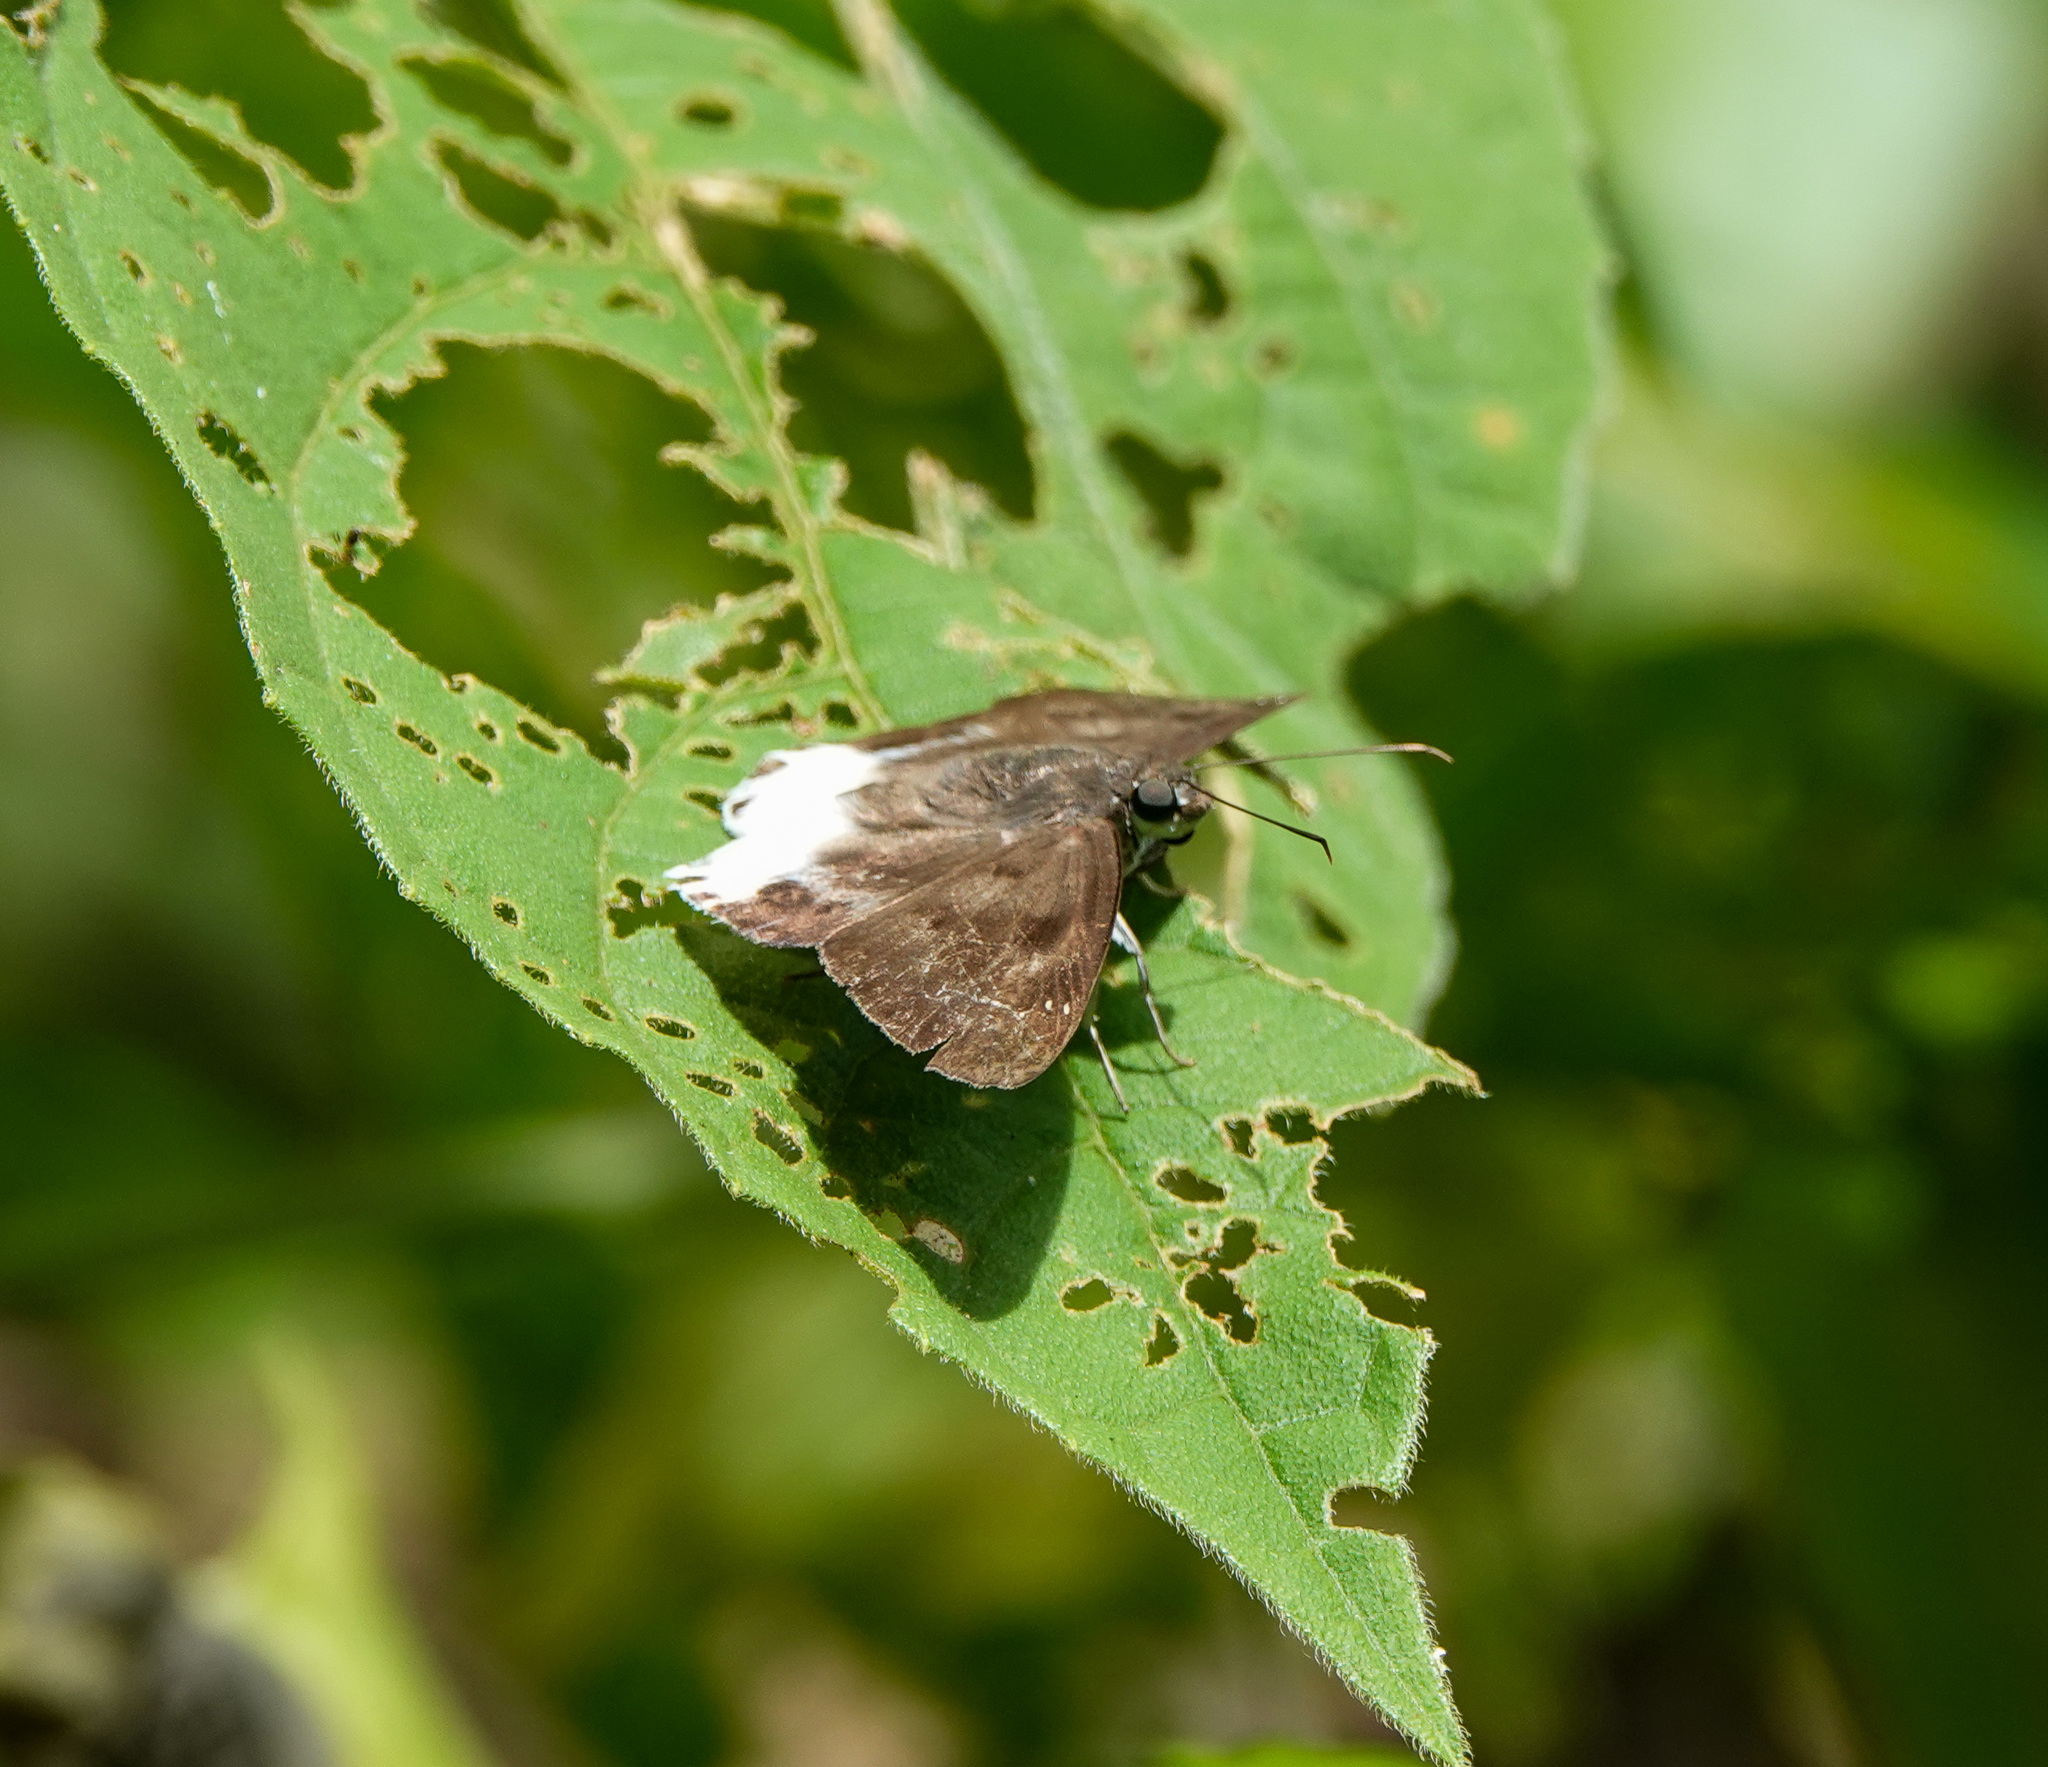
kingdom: Animalia
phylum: Arthropoda
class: Insecta
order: Lepidoptera
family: Hesperiidae
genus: Tagiades
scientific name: Tagiades litigiosa
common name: Water snow flat
